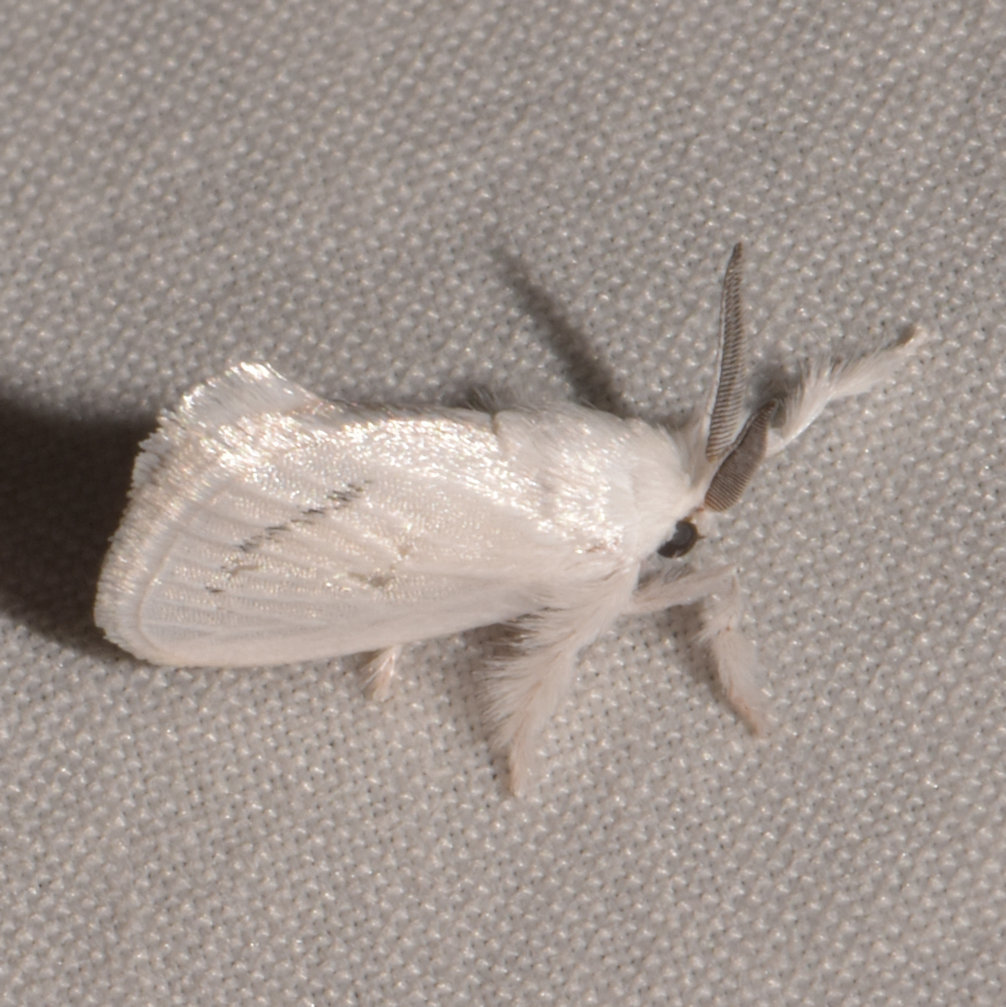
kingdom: Animalia
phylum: Arthropoda
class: Insecta
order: Lepidoptera
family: Limacodidae
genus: Alarodia
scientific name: Alarodia minuscula
